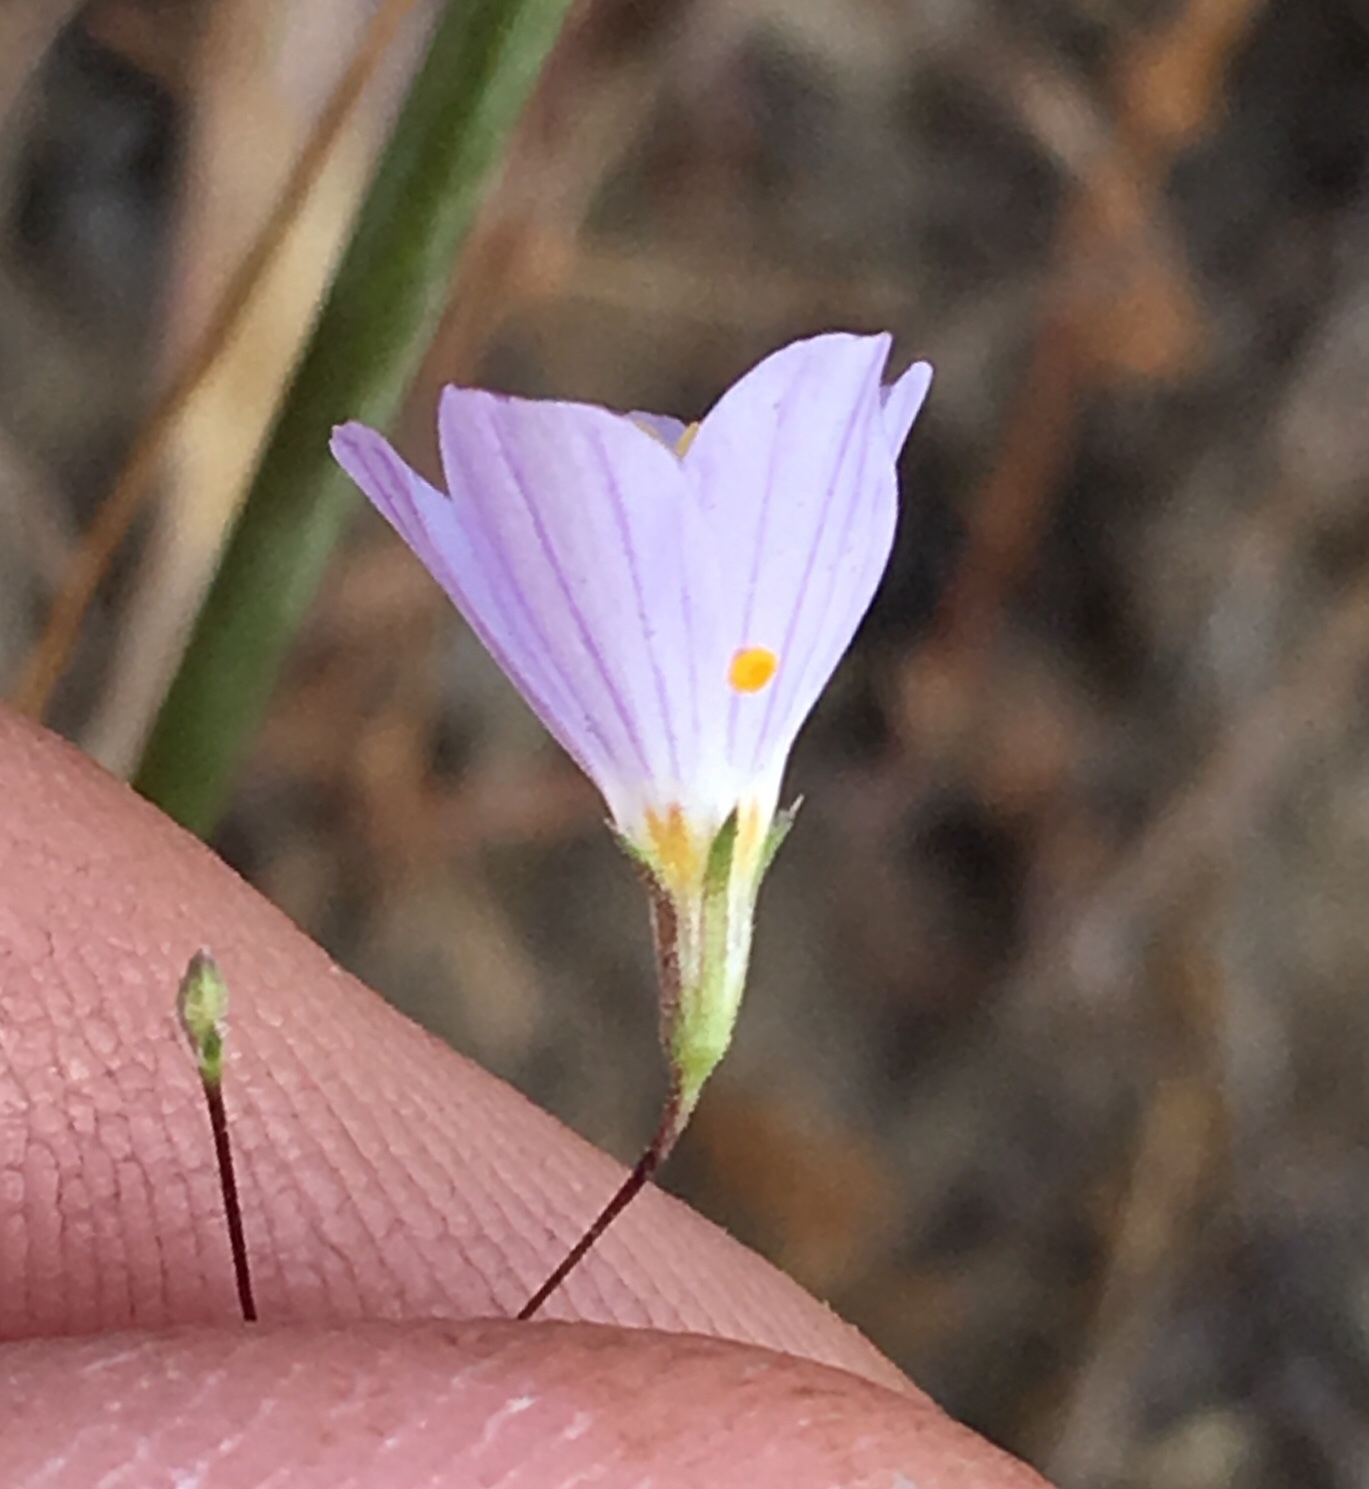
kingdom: Plantae
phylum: Tracheophyta
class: Magnoliopsida
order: Ericales
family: Polemoniaceae
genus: Leptosiphon
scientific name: Leptosiphon liniflorus
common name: Narrowflower flaxflower
